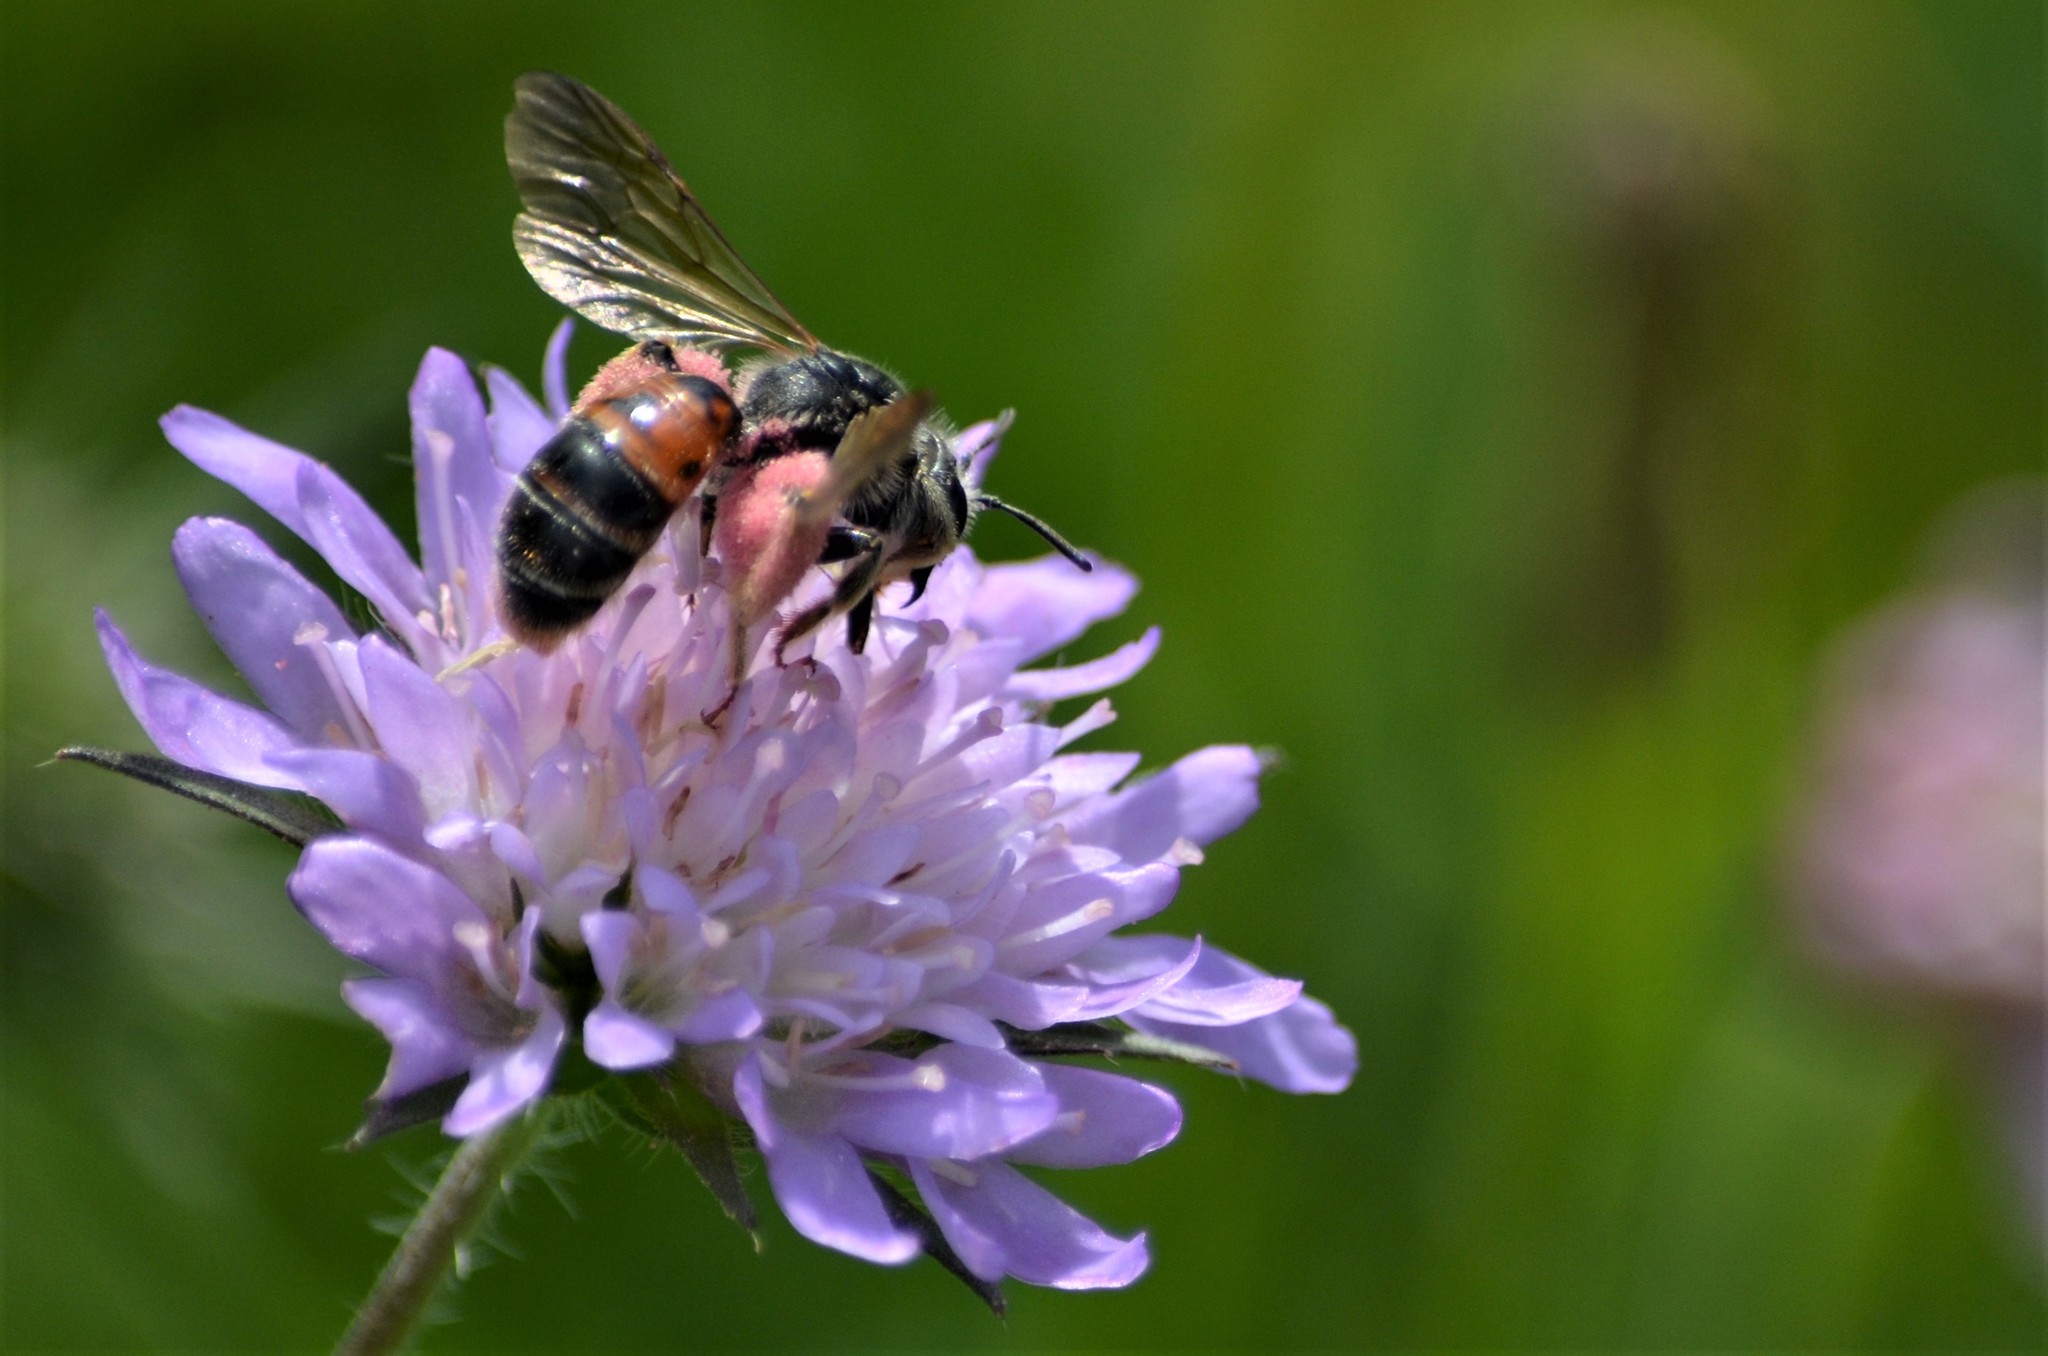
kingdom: Animalia
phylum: Arthropoda
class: Insecta
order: Hymenoptera
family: Andrenidae
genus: Andrena
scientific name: Andrena hattorfiana
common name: Large scabious mining bee
